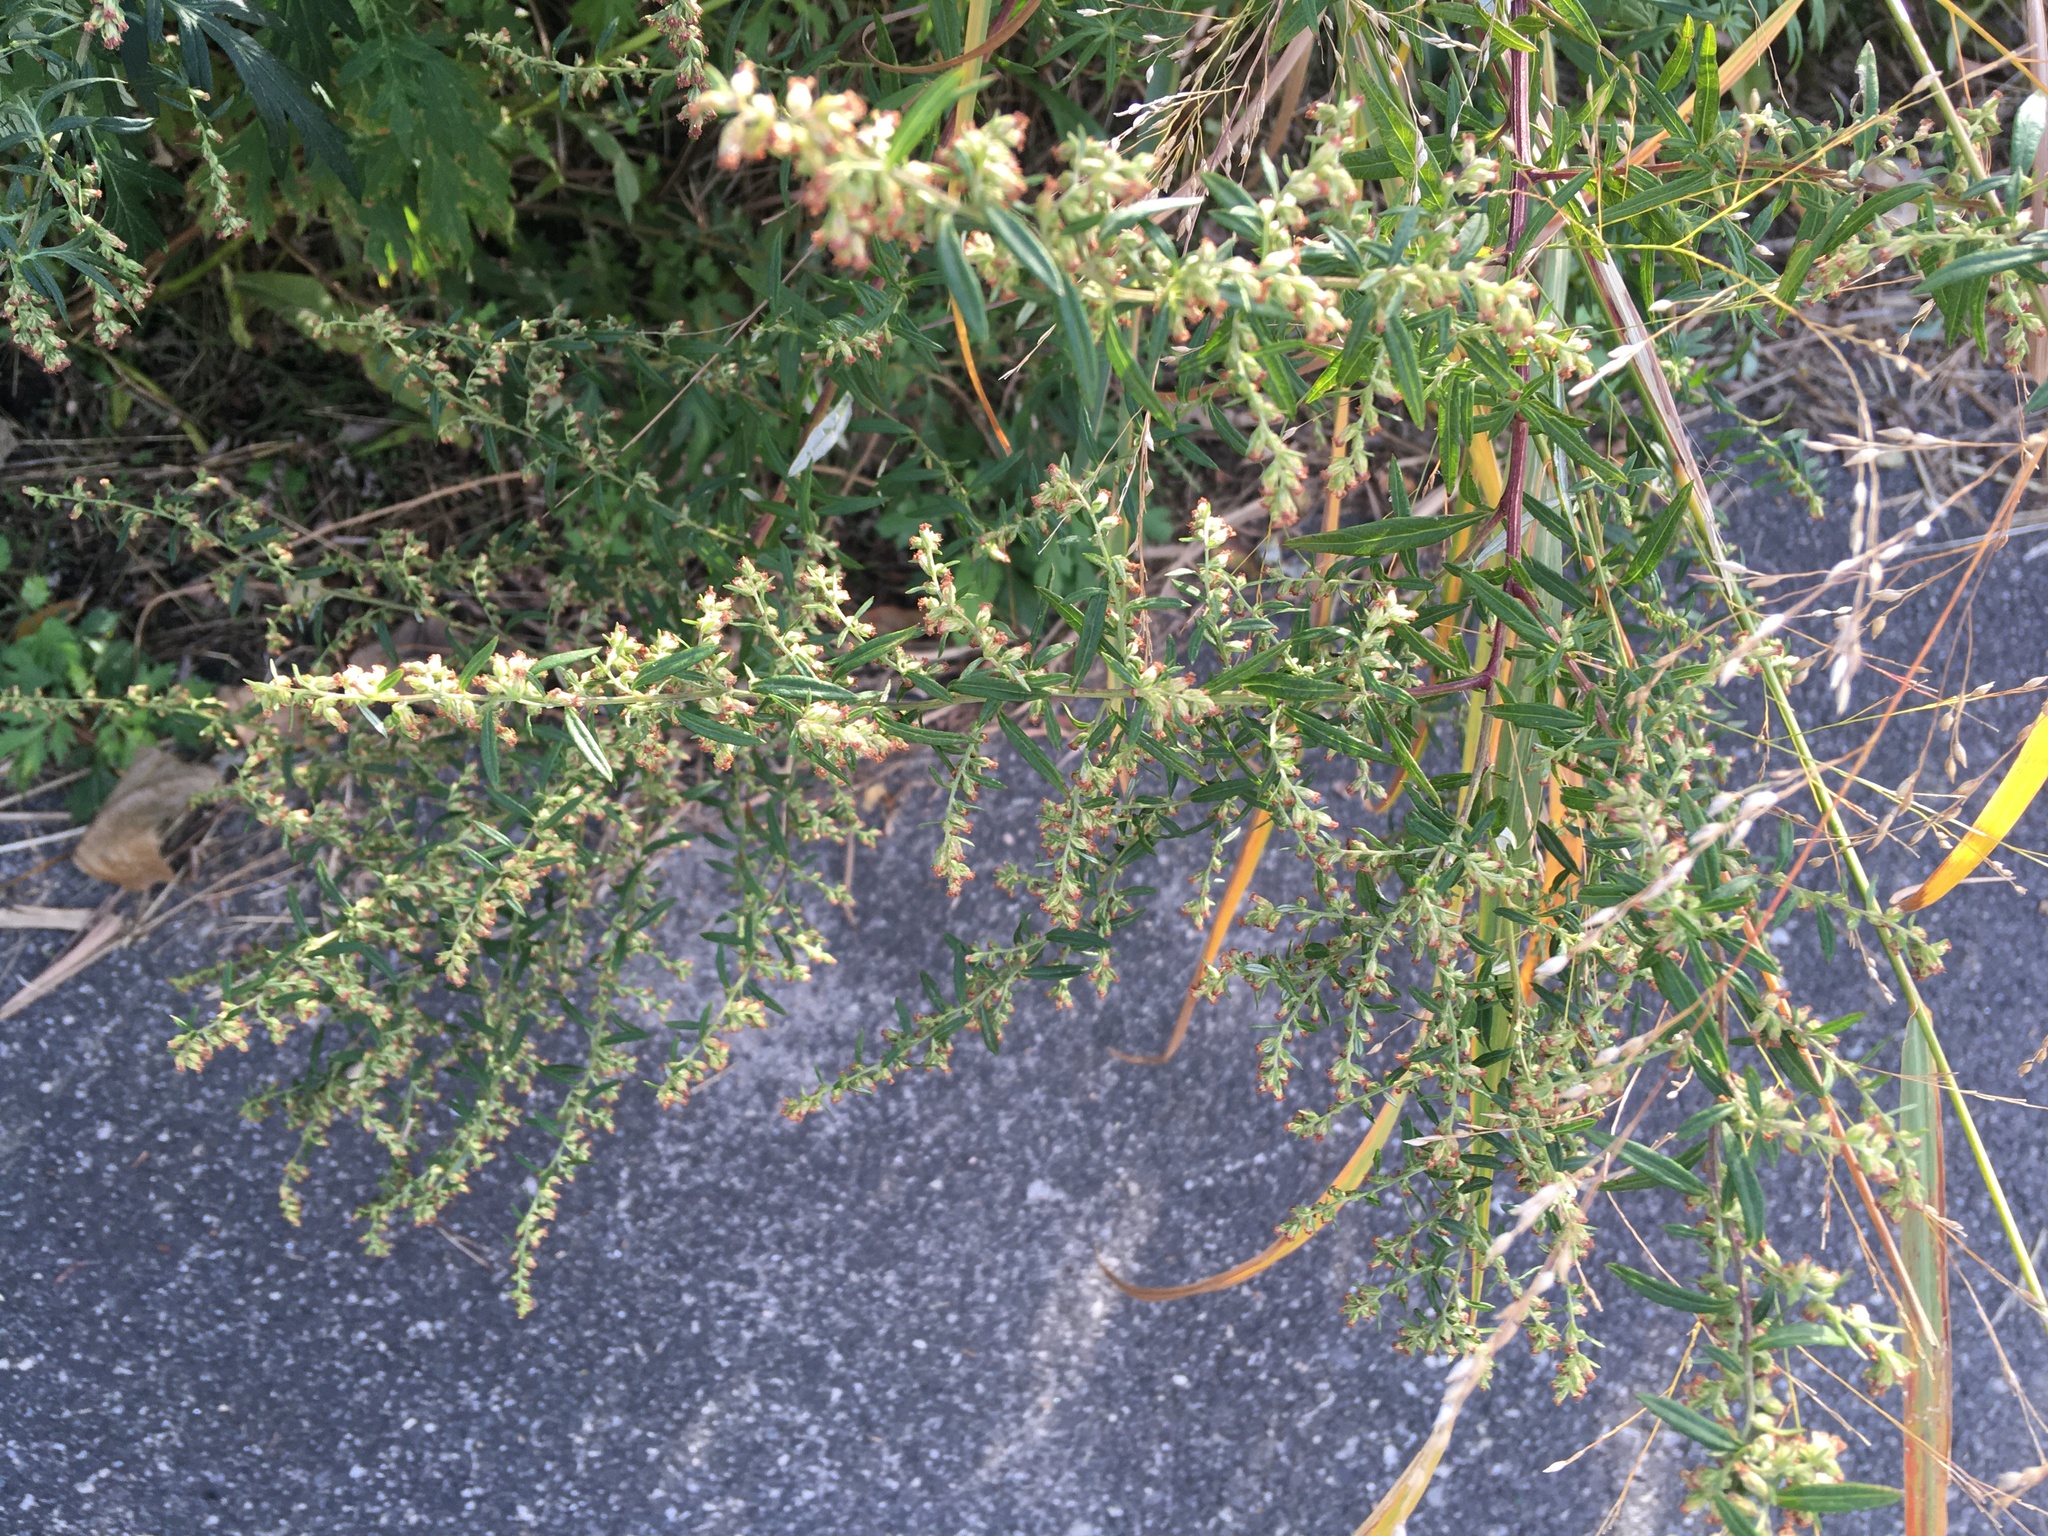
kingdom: Plantae
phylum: Tracheophyta
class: Magnoliopsida
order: Asterales
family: Asteraceae
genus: Artemisia
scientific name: Artemisia vulgaris
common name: Mugwort
